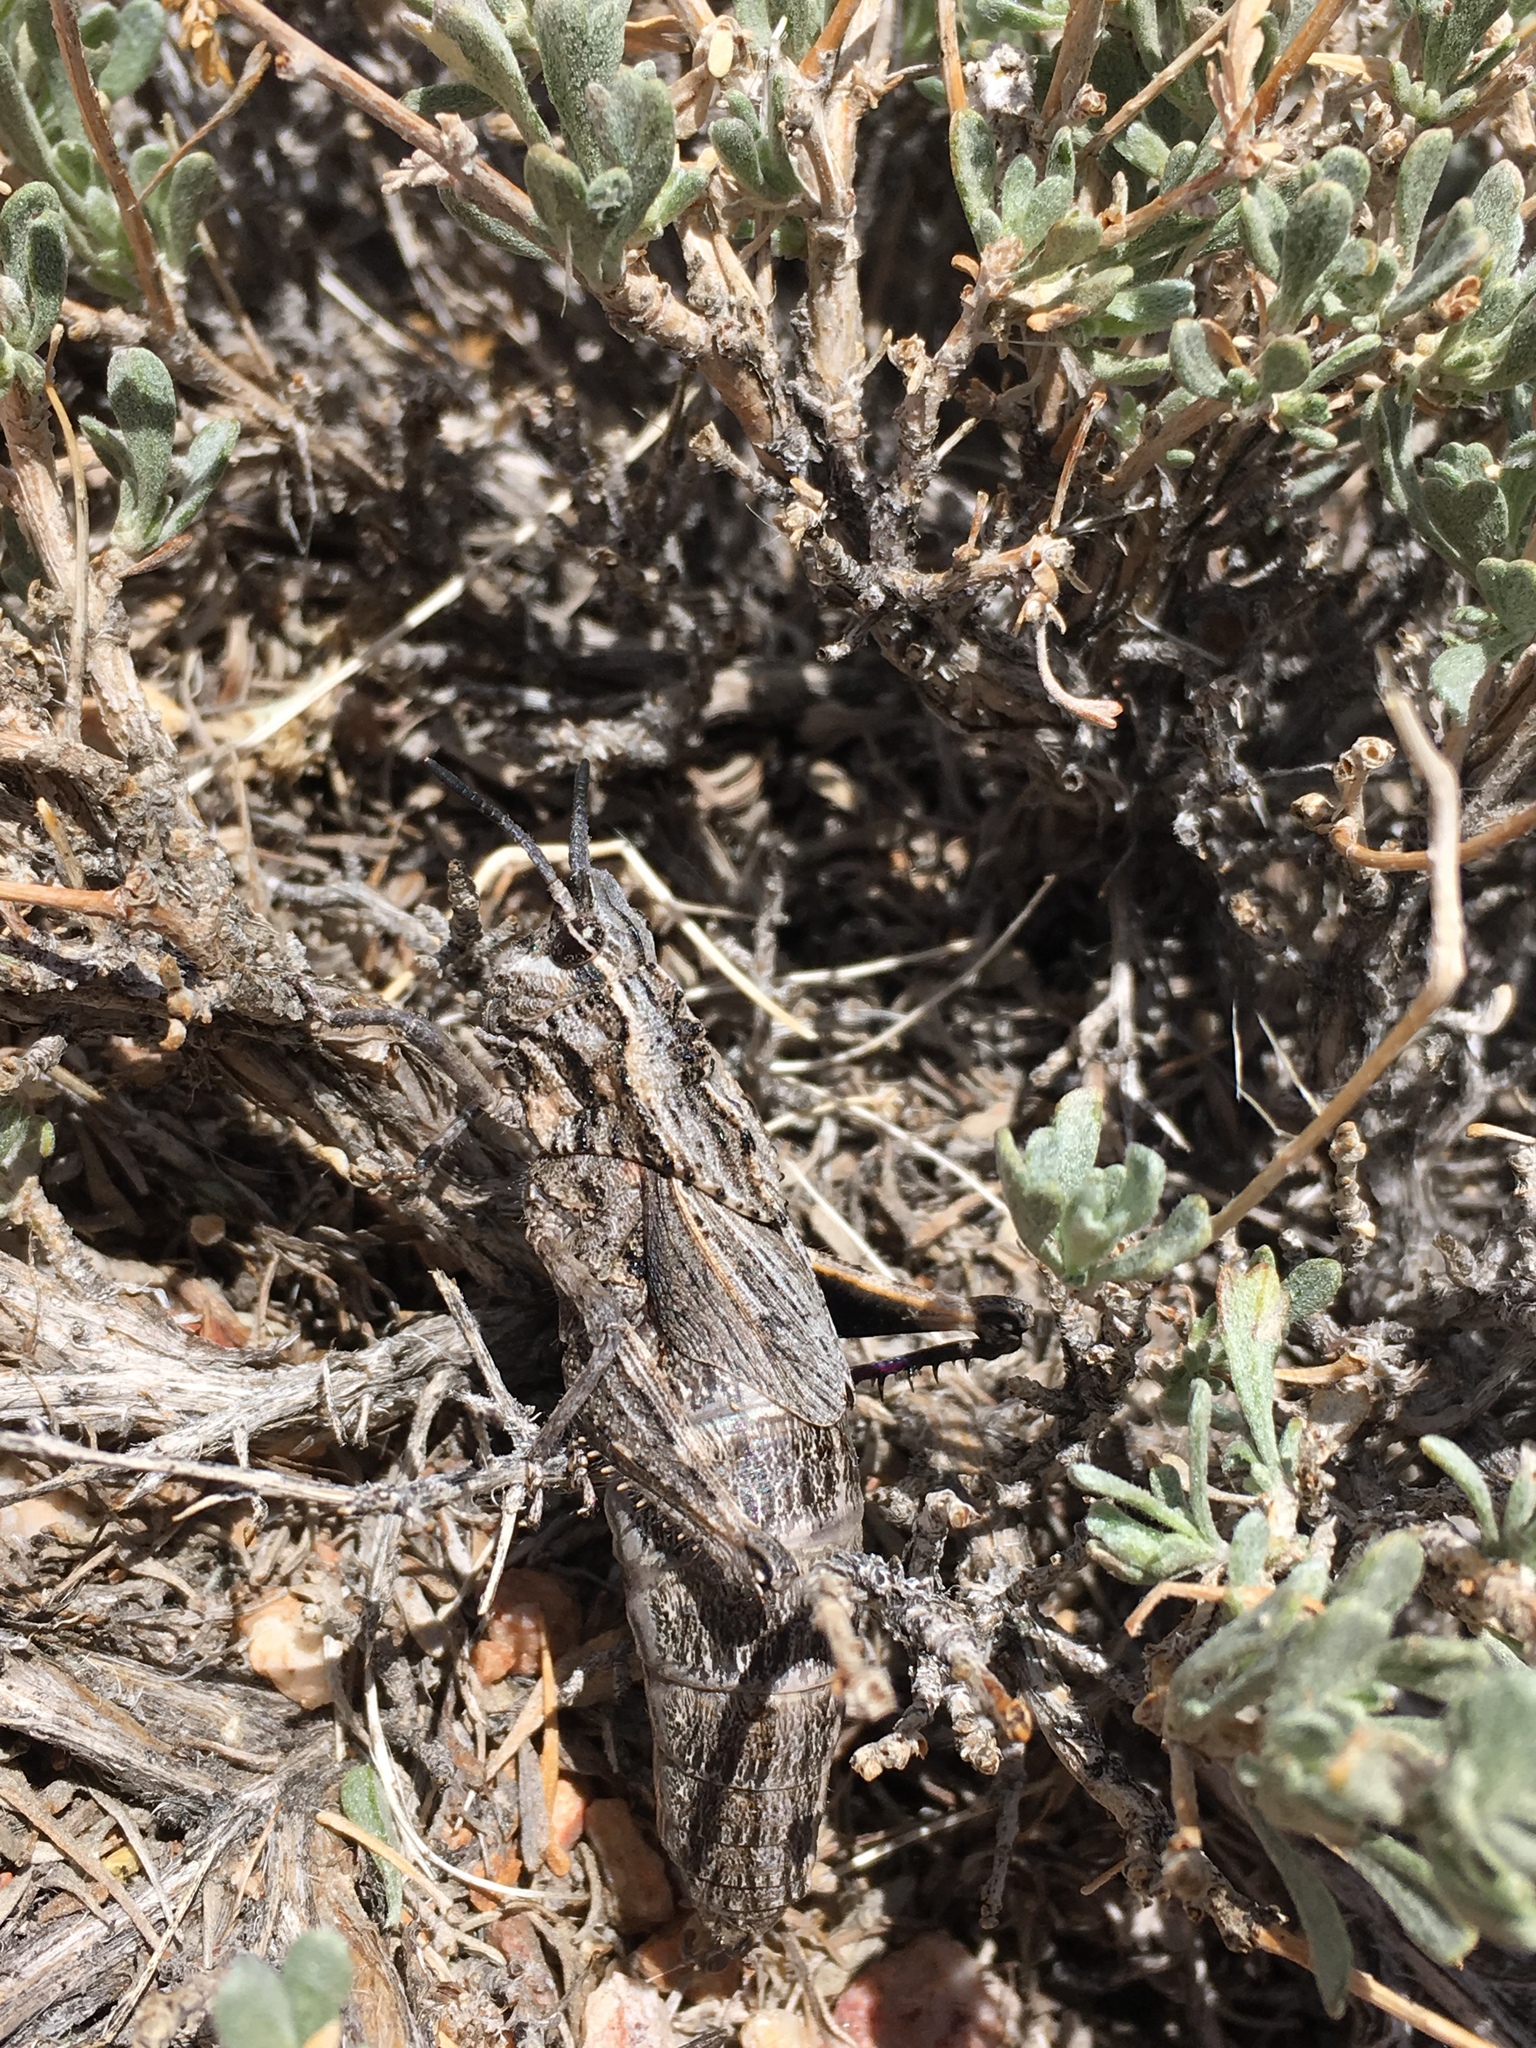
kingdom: Animalia
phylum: Arthropoda
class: Insecta
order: Orthoptera
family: Romaleidae
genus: Dracotettix
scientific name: Dracotettix plutonius
